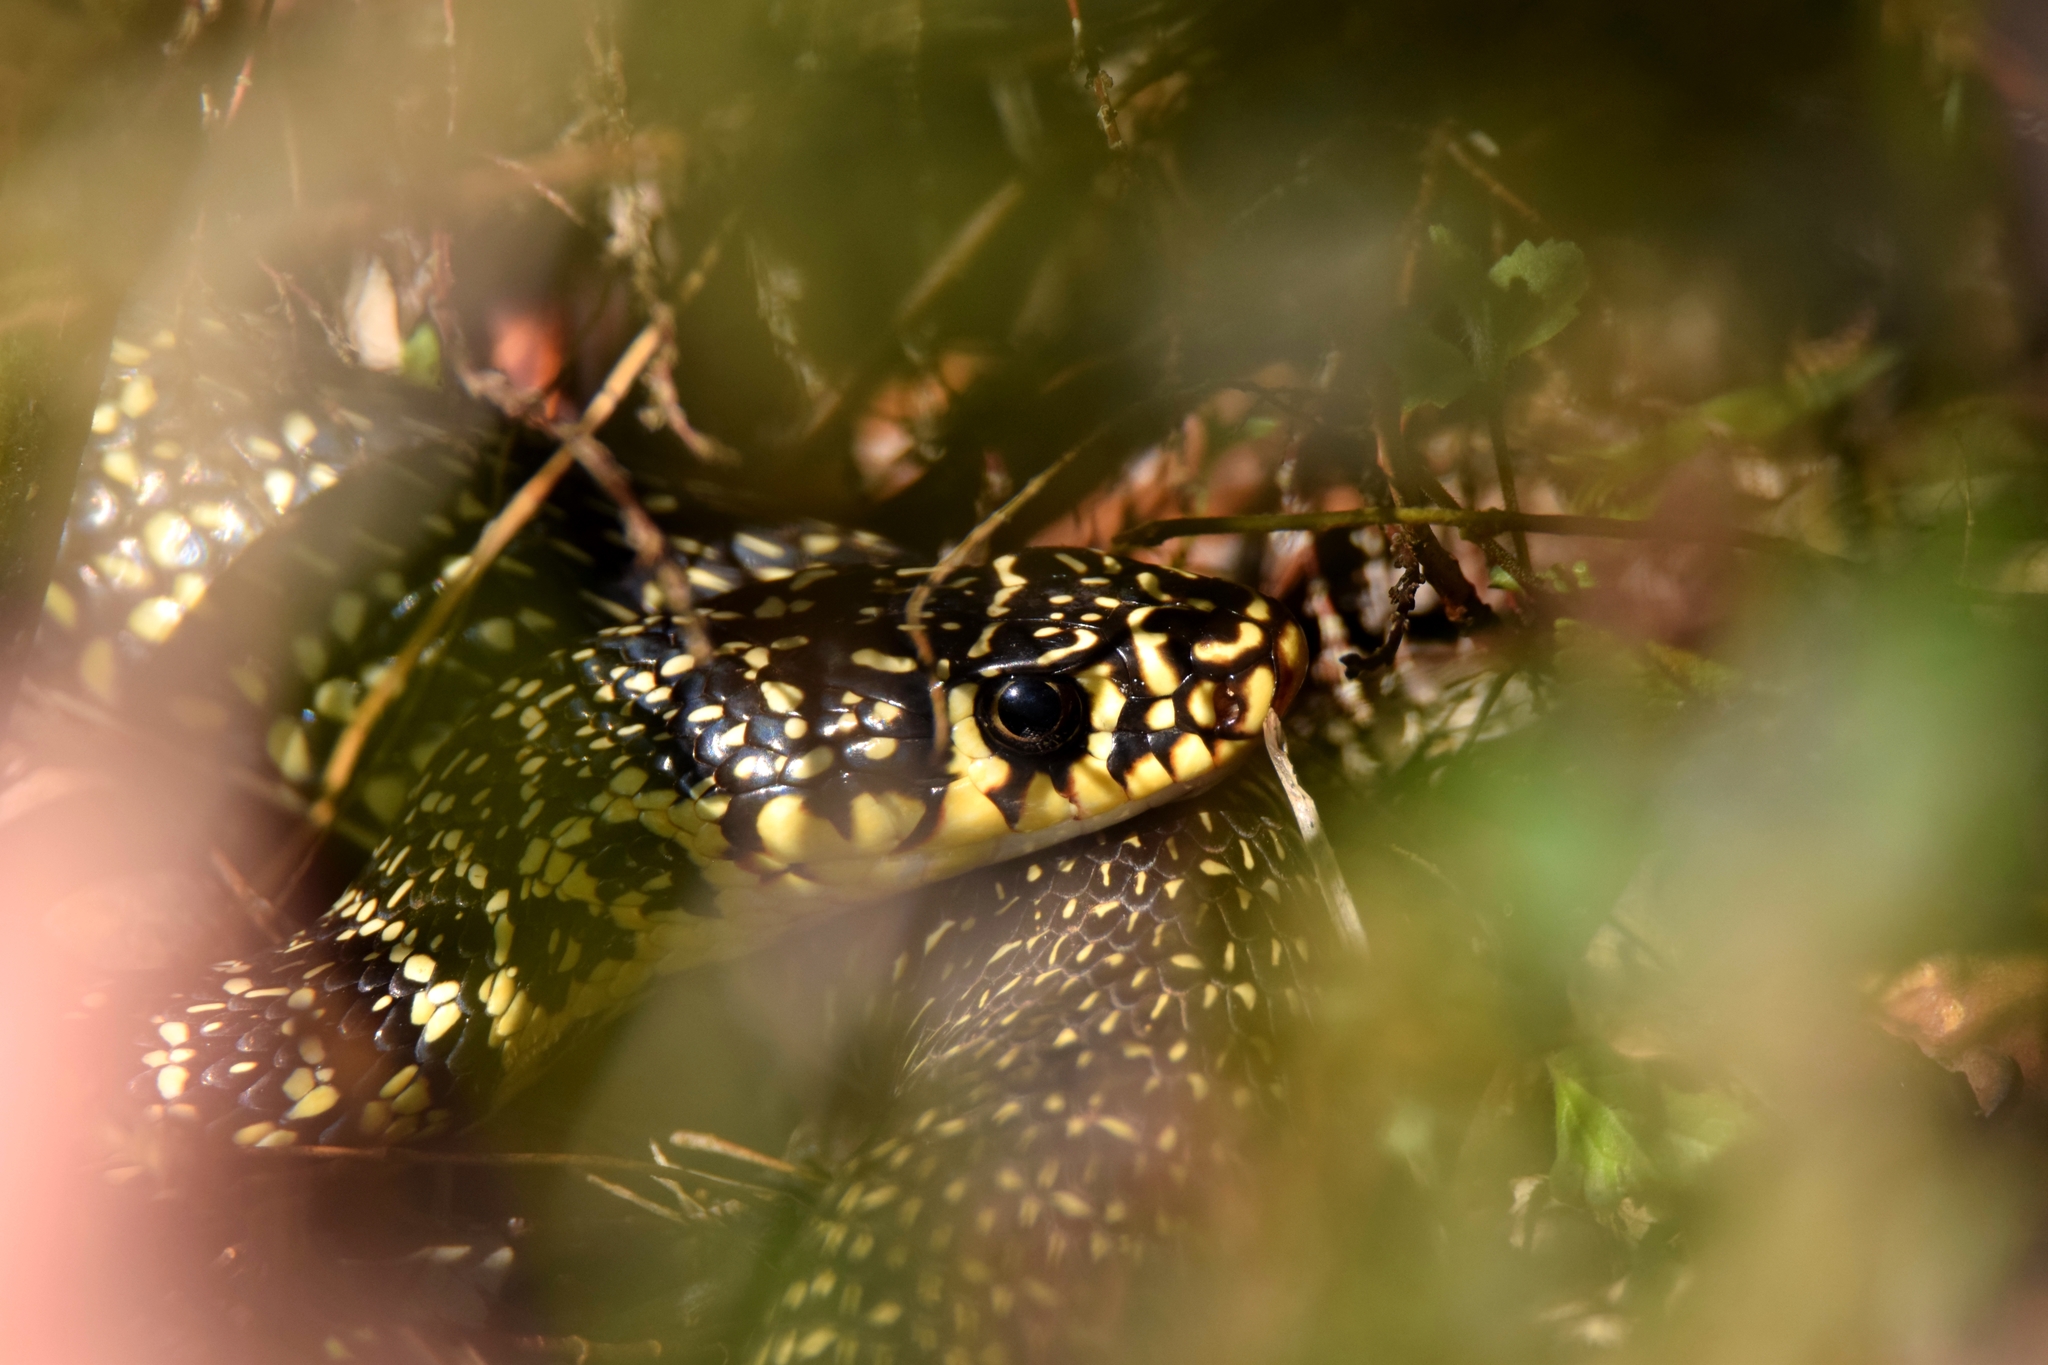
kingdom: Animalia
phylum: Chordata
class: Squamata
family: Colubridae
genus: Hierophis
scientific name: Hierophis viridiflavus
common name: Green whip snake
